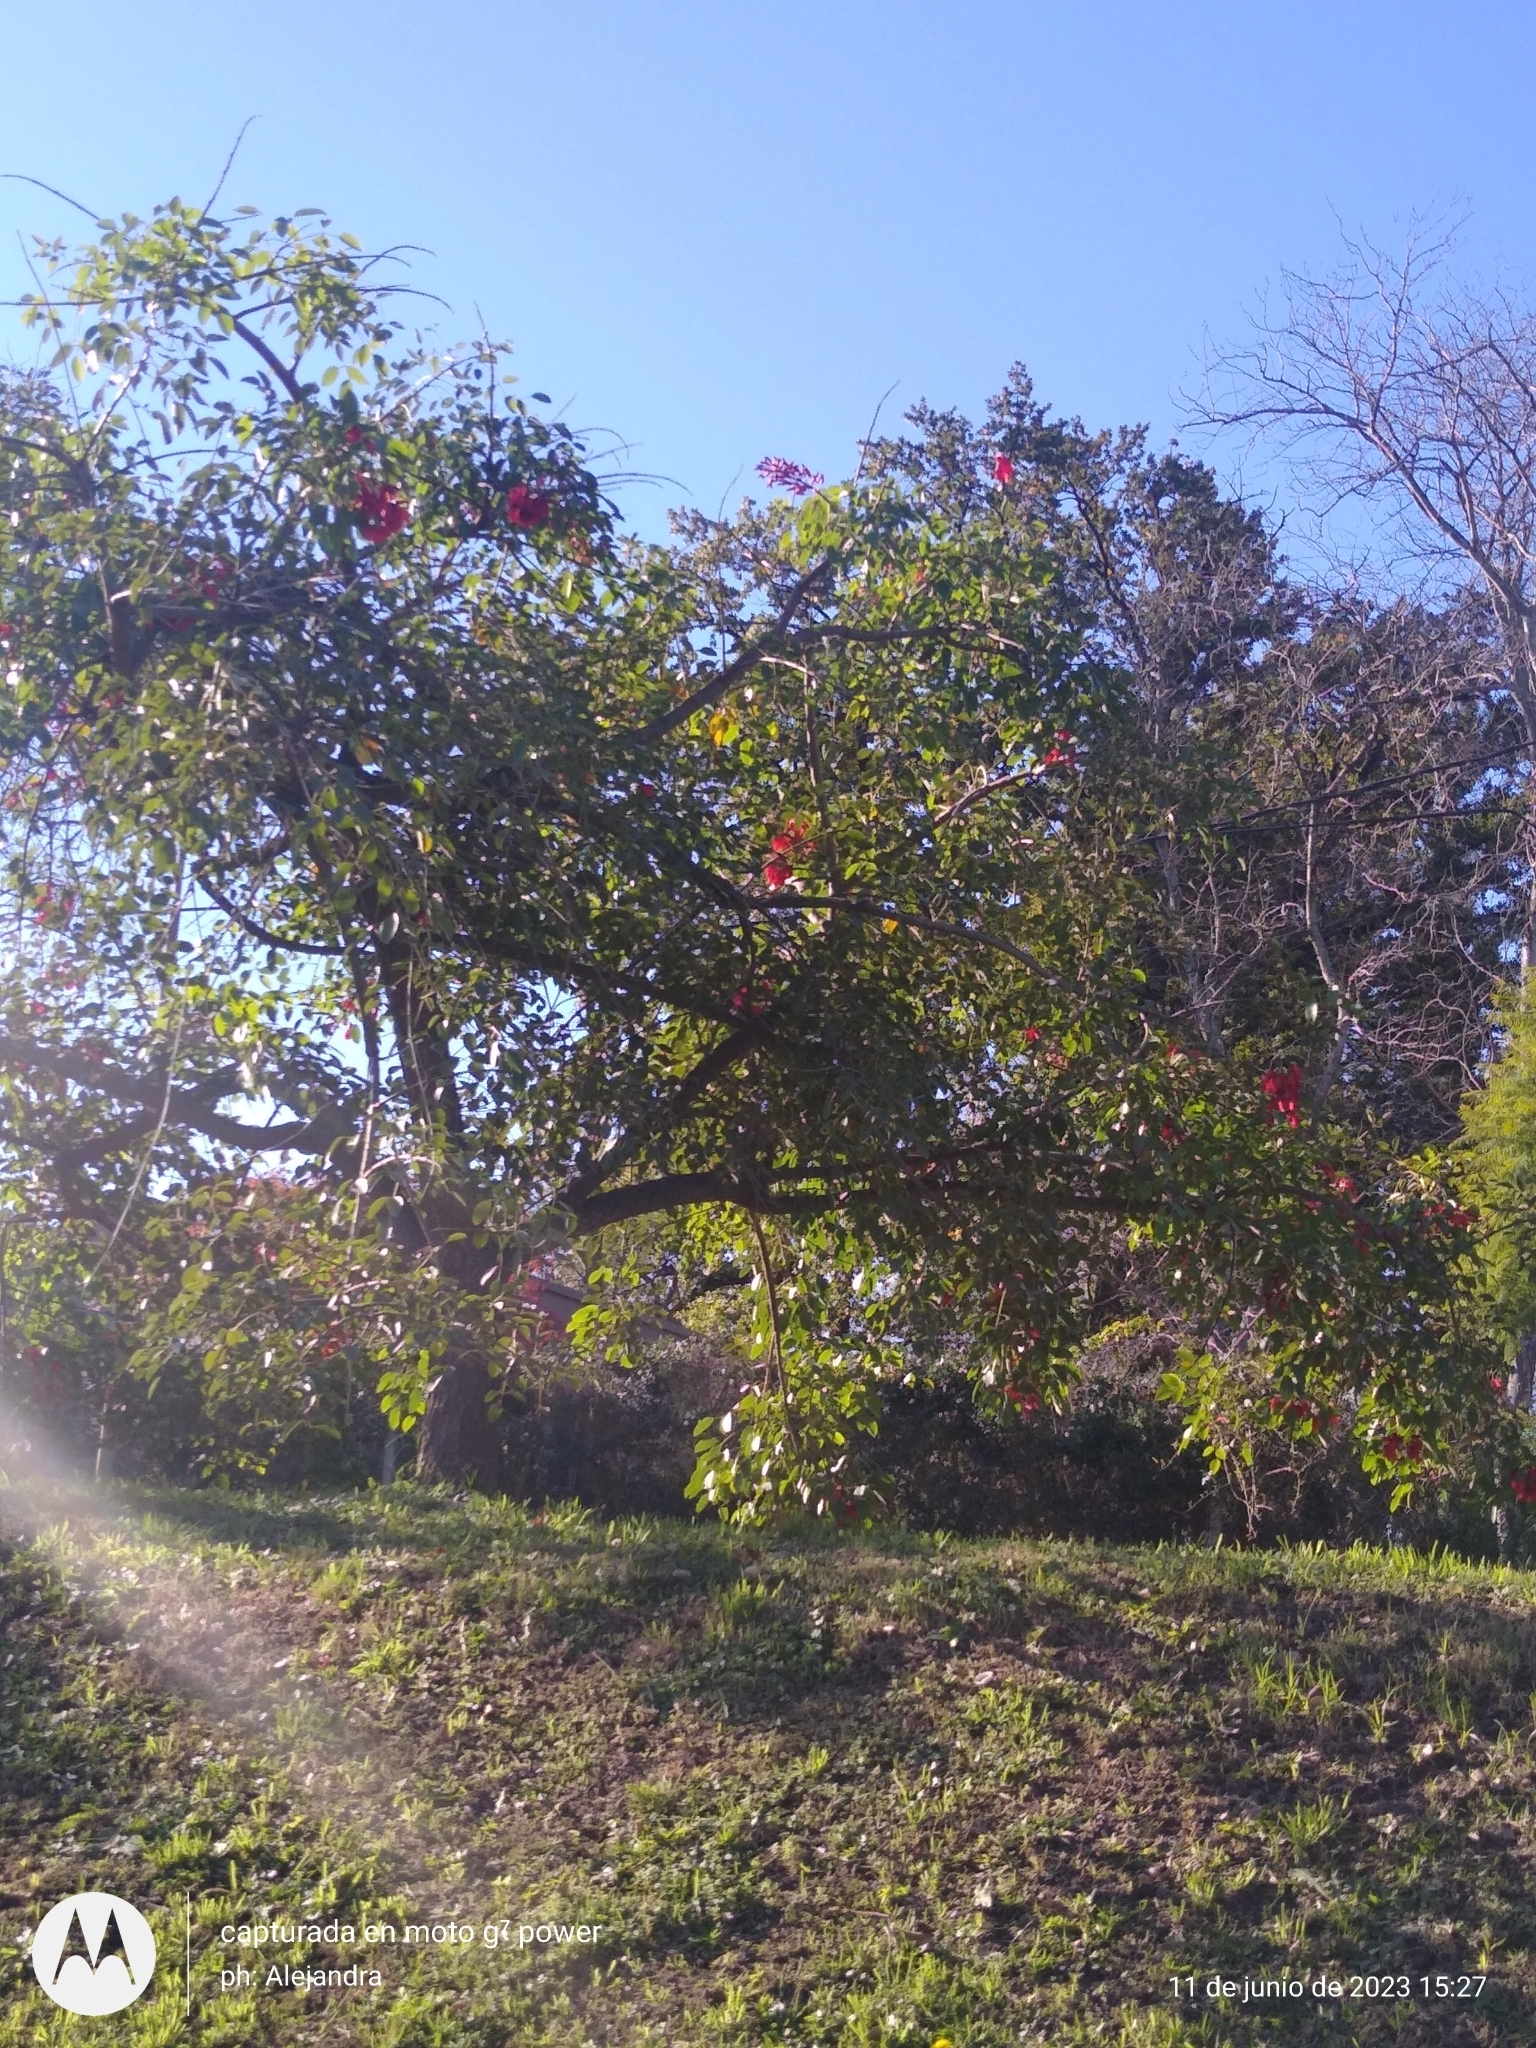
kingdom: Plantae
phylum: Tracheophyta
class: Magnoliopsida
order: Fabales
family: Fabaceae
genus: Erythrina
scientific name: Erythrina crista-galli
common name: Cockspur coral tree
